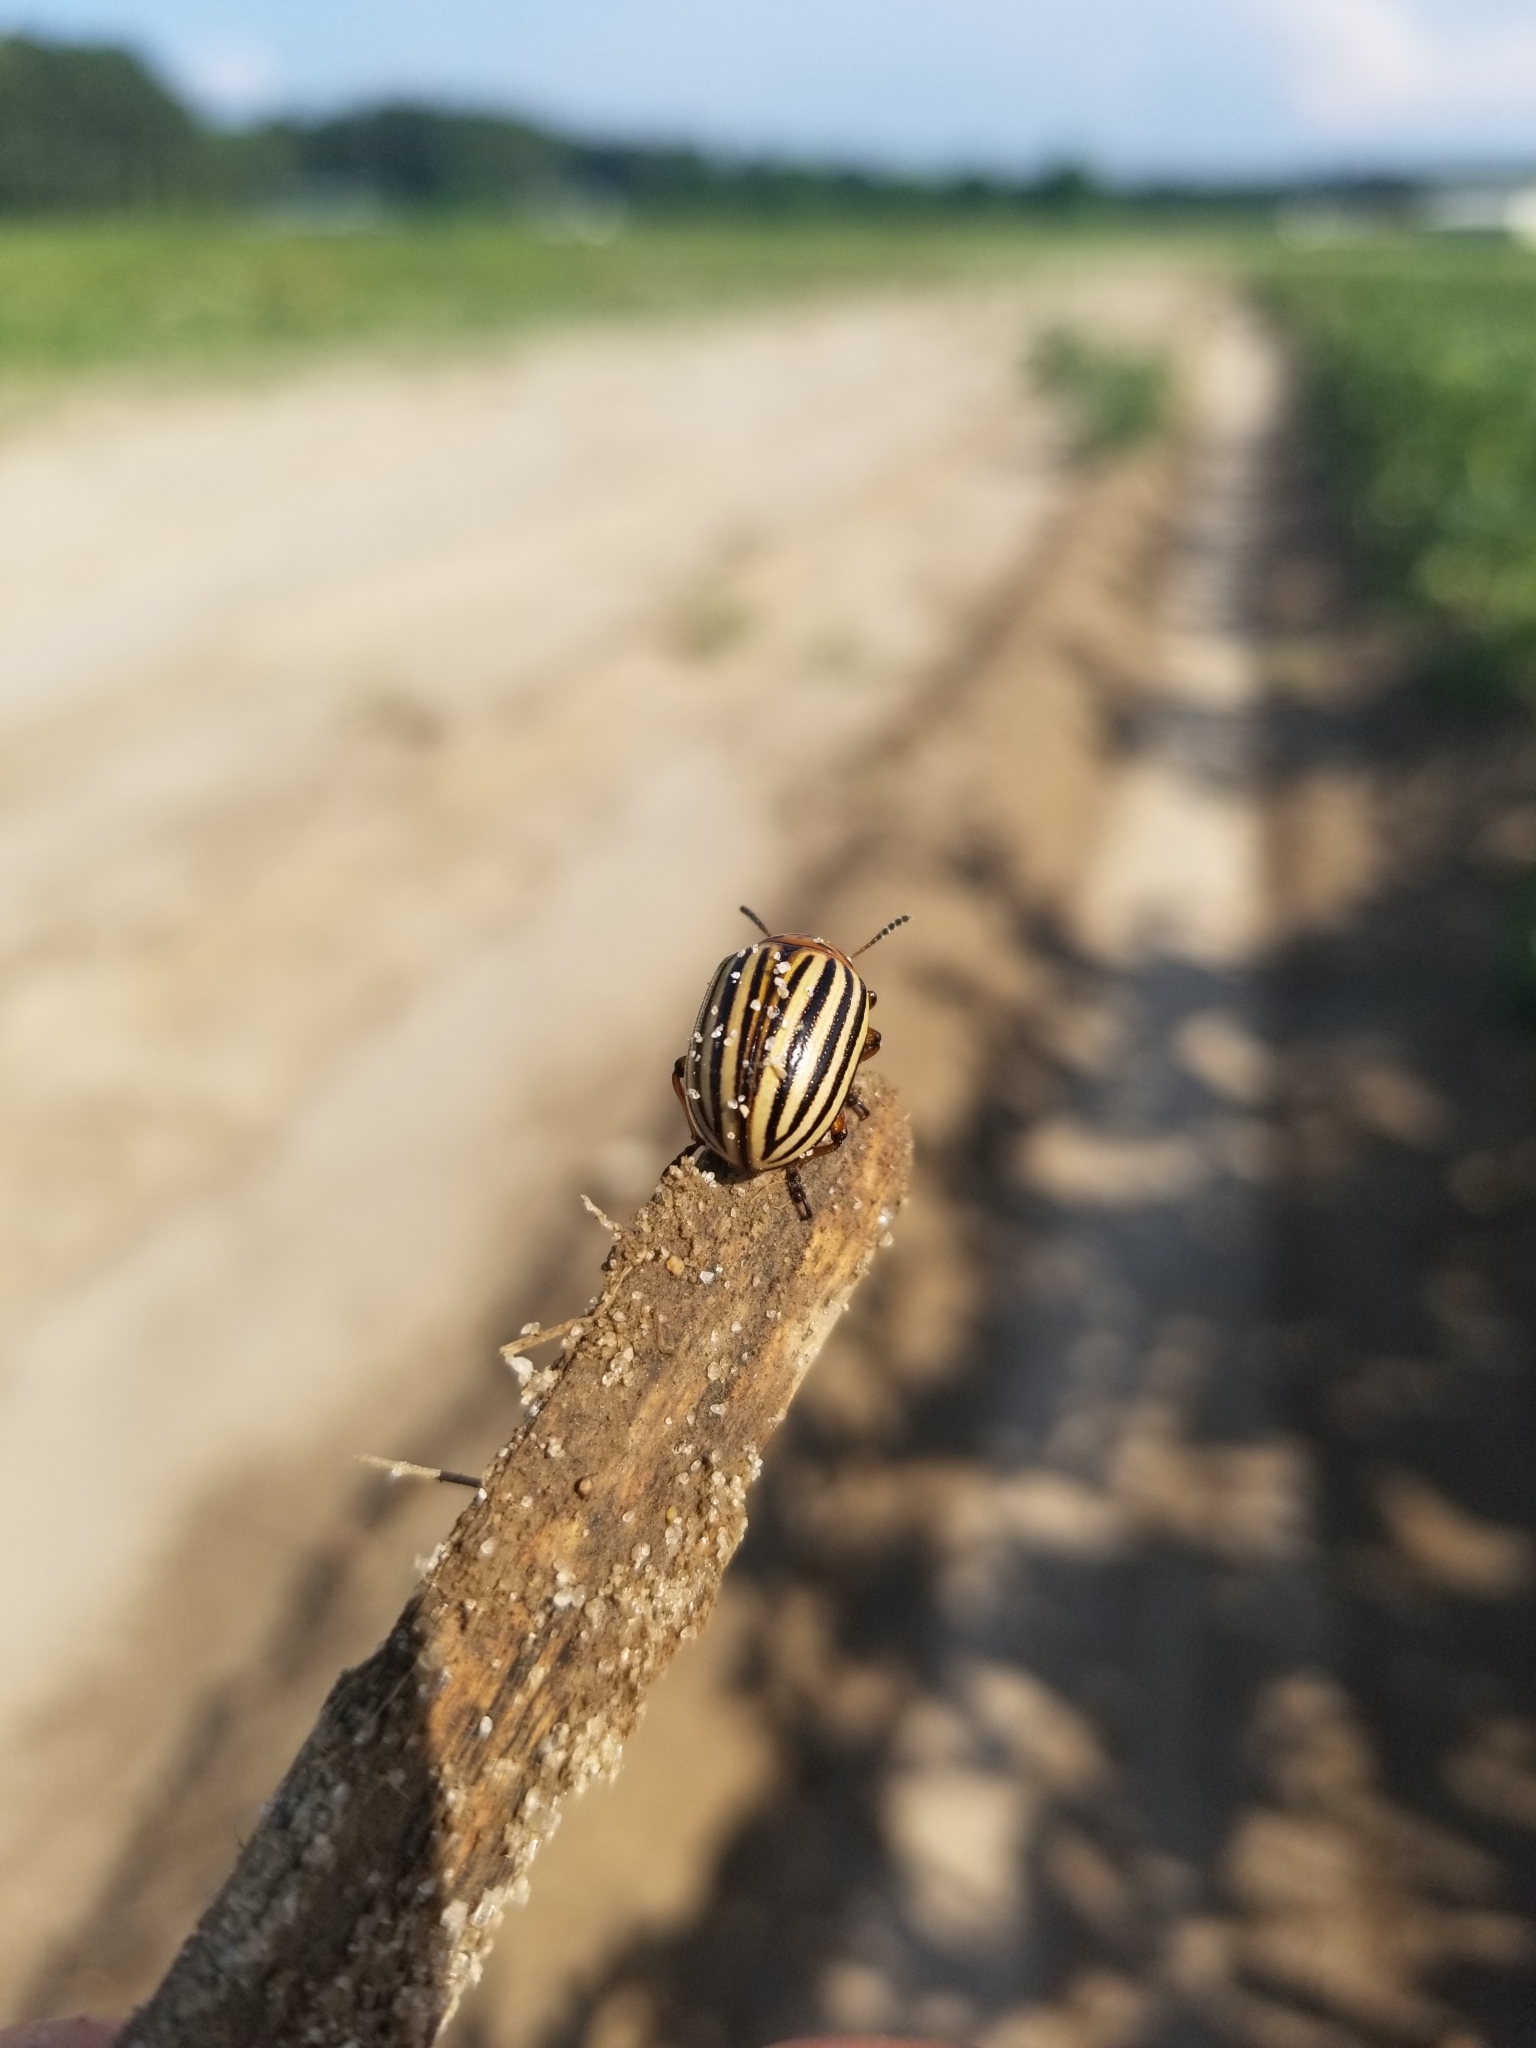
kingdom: Animalia
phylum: Arthropoda
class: Insecta
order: Coleoptera
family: Chrysomelidae
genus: Leptinotarsa
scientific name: Leptinotarsa decemlineata
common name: Colorado potato beetle
